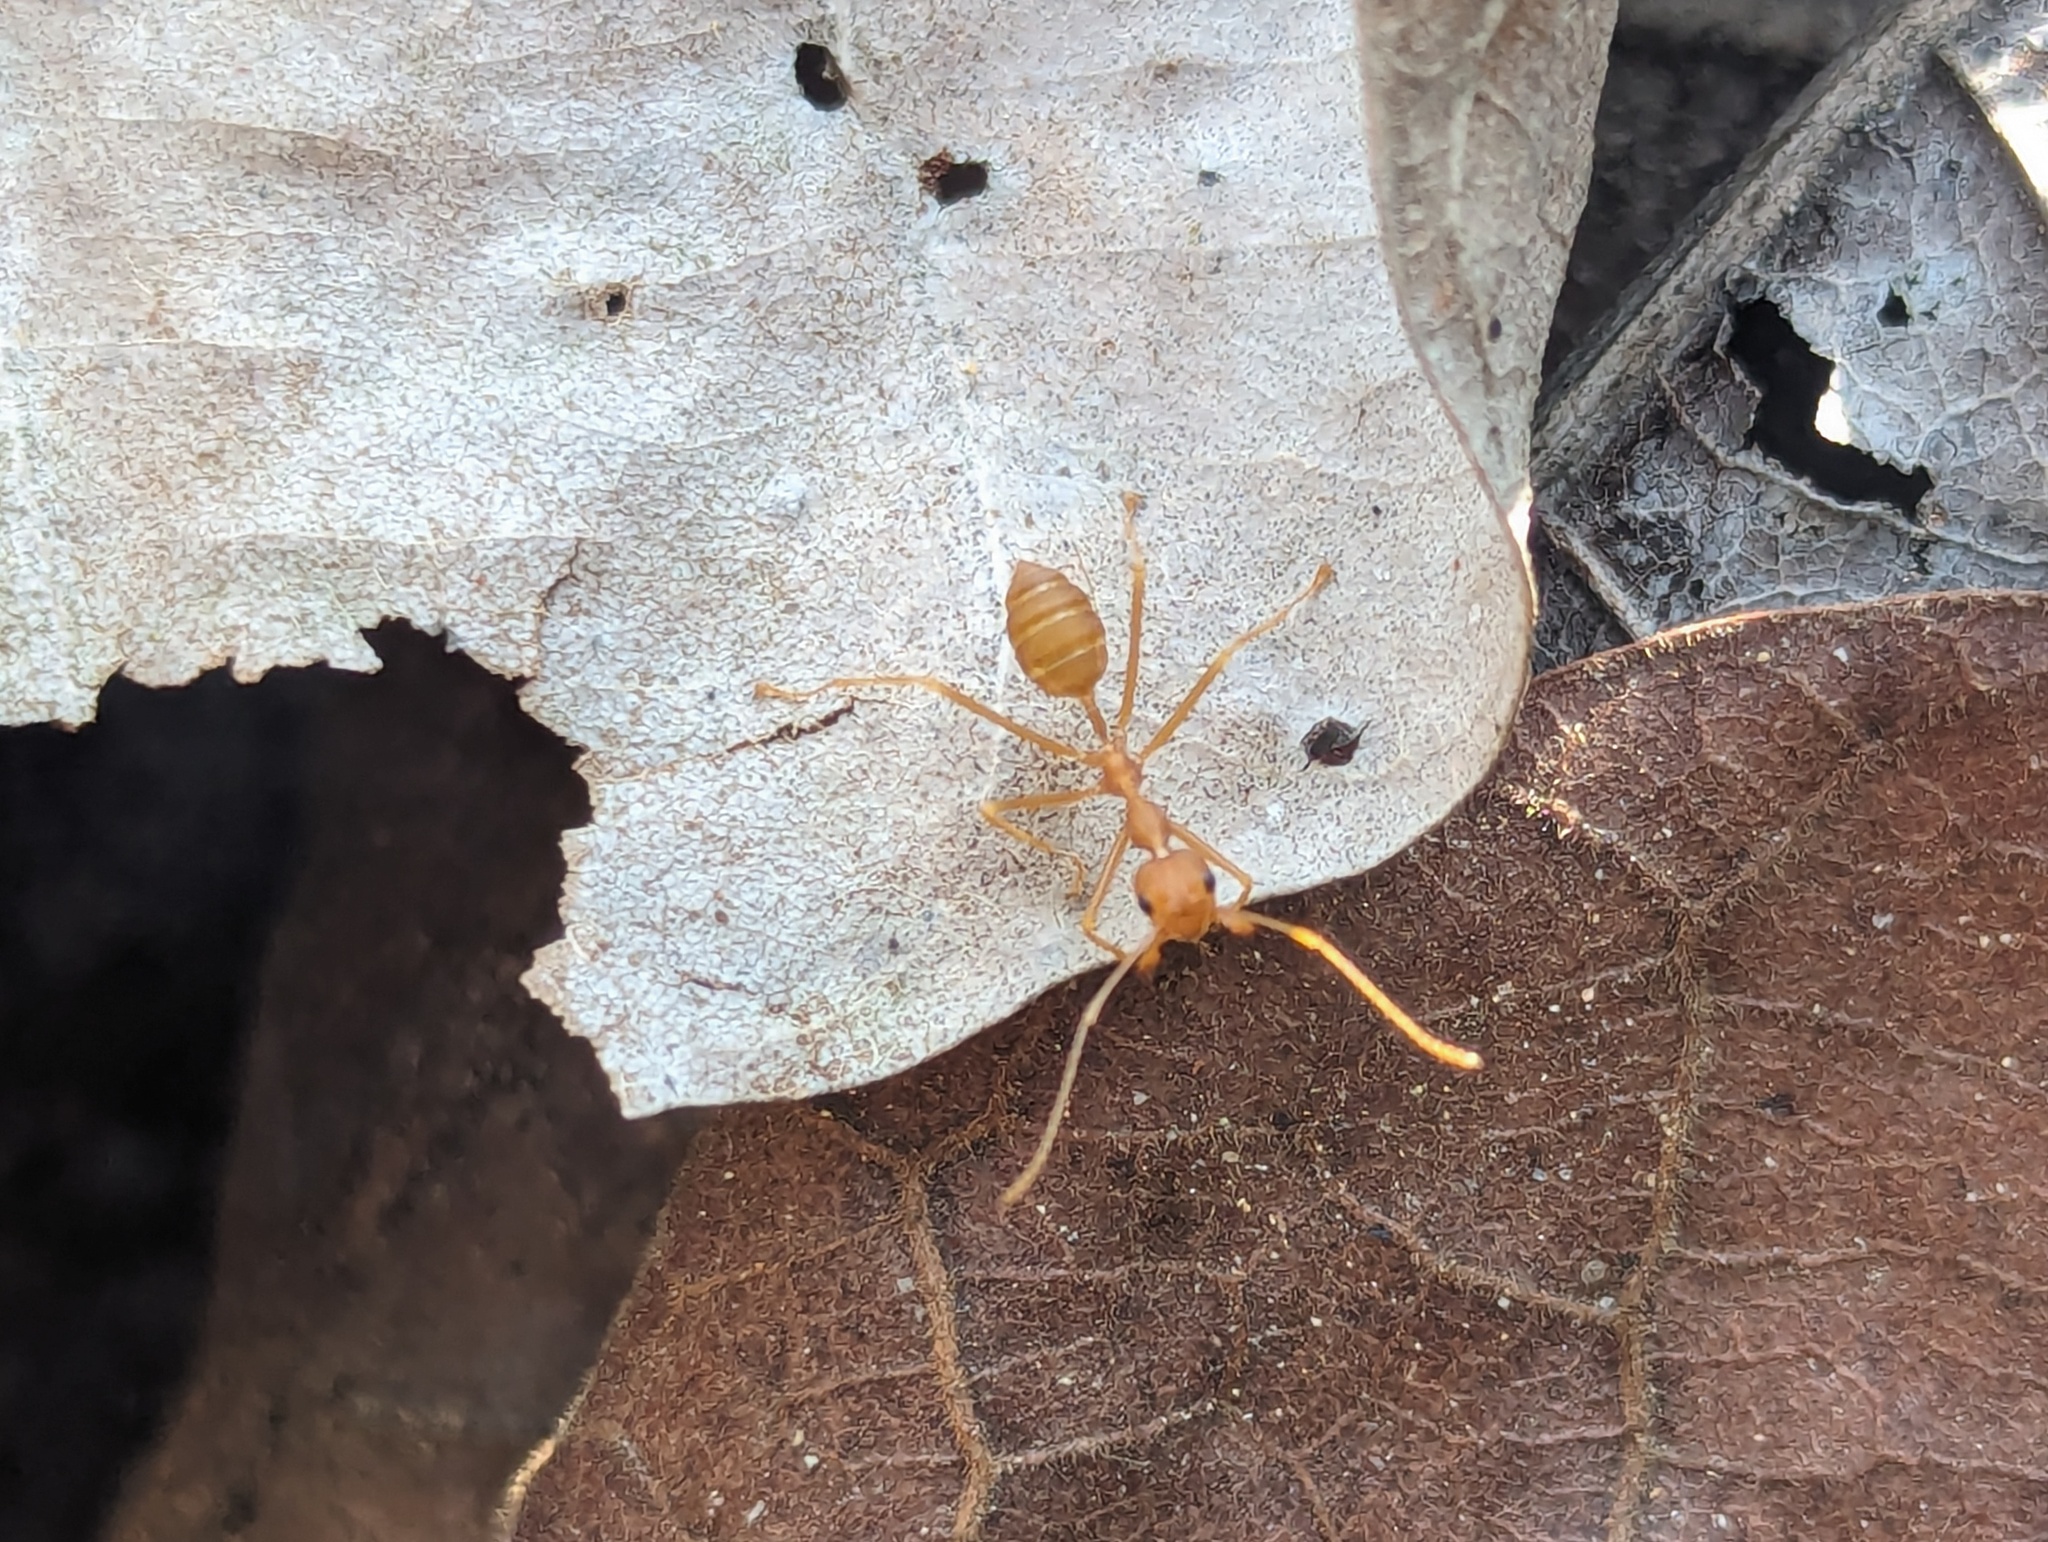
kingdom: Animalia
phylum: Arthropoda
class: Insecta
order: Hymenoptera
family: Formicidae
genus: Oecophylla
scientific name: Oecophylla smaragdina
